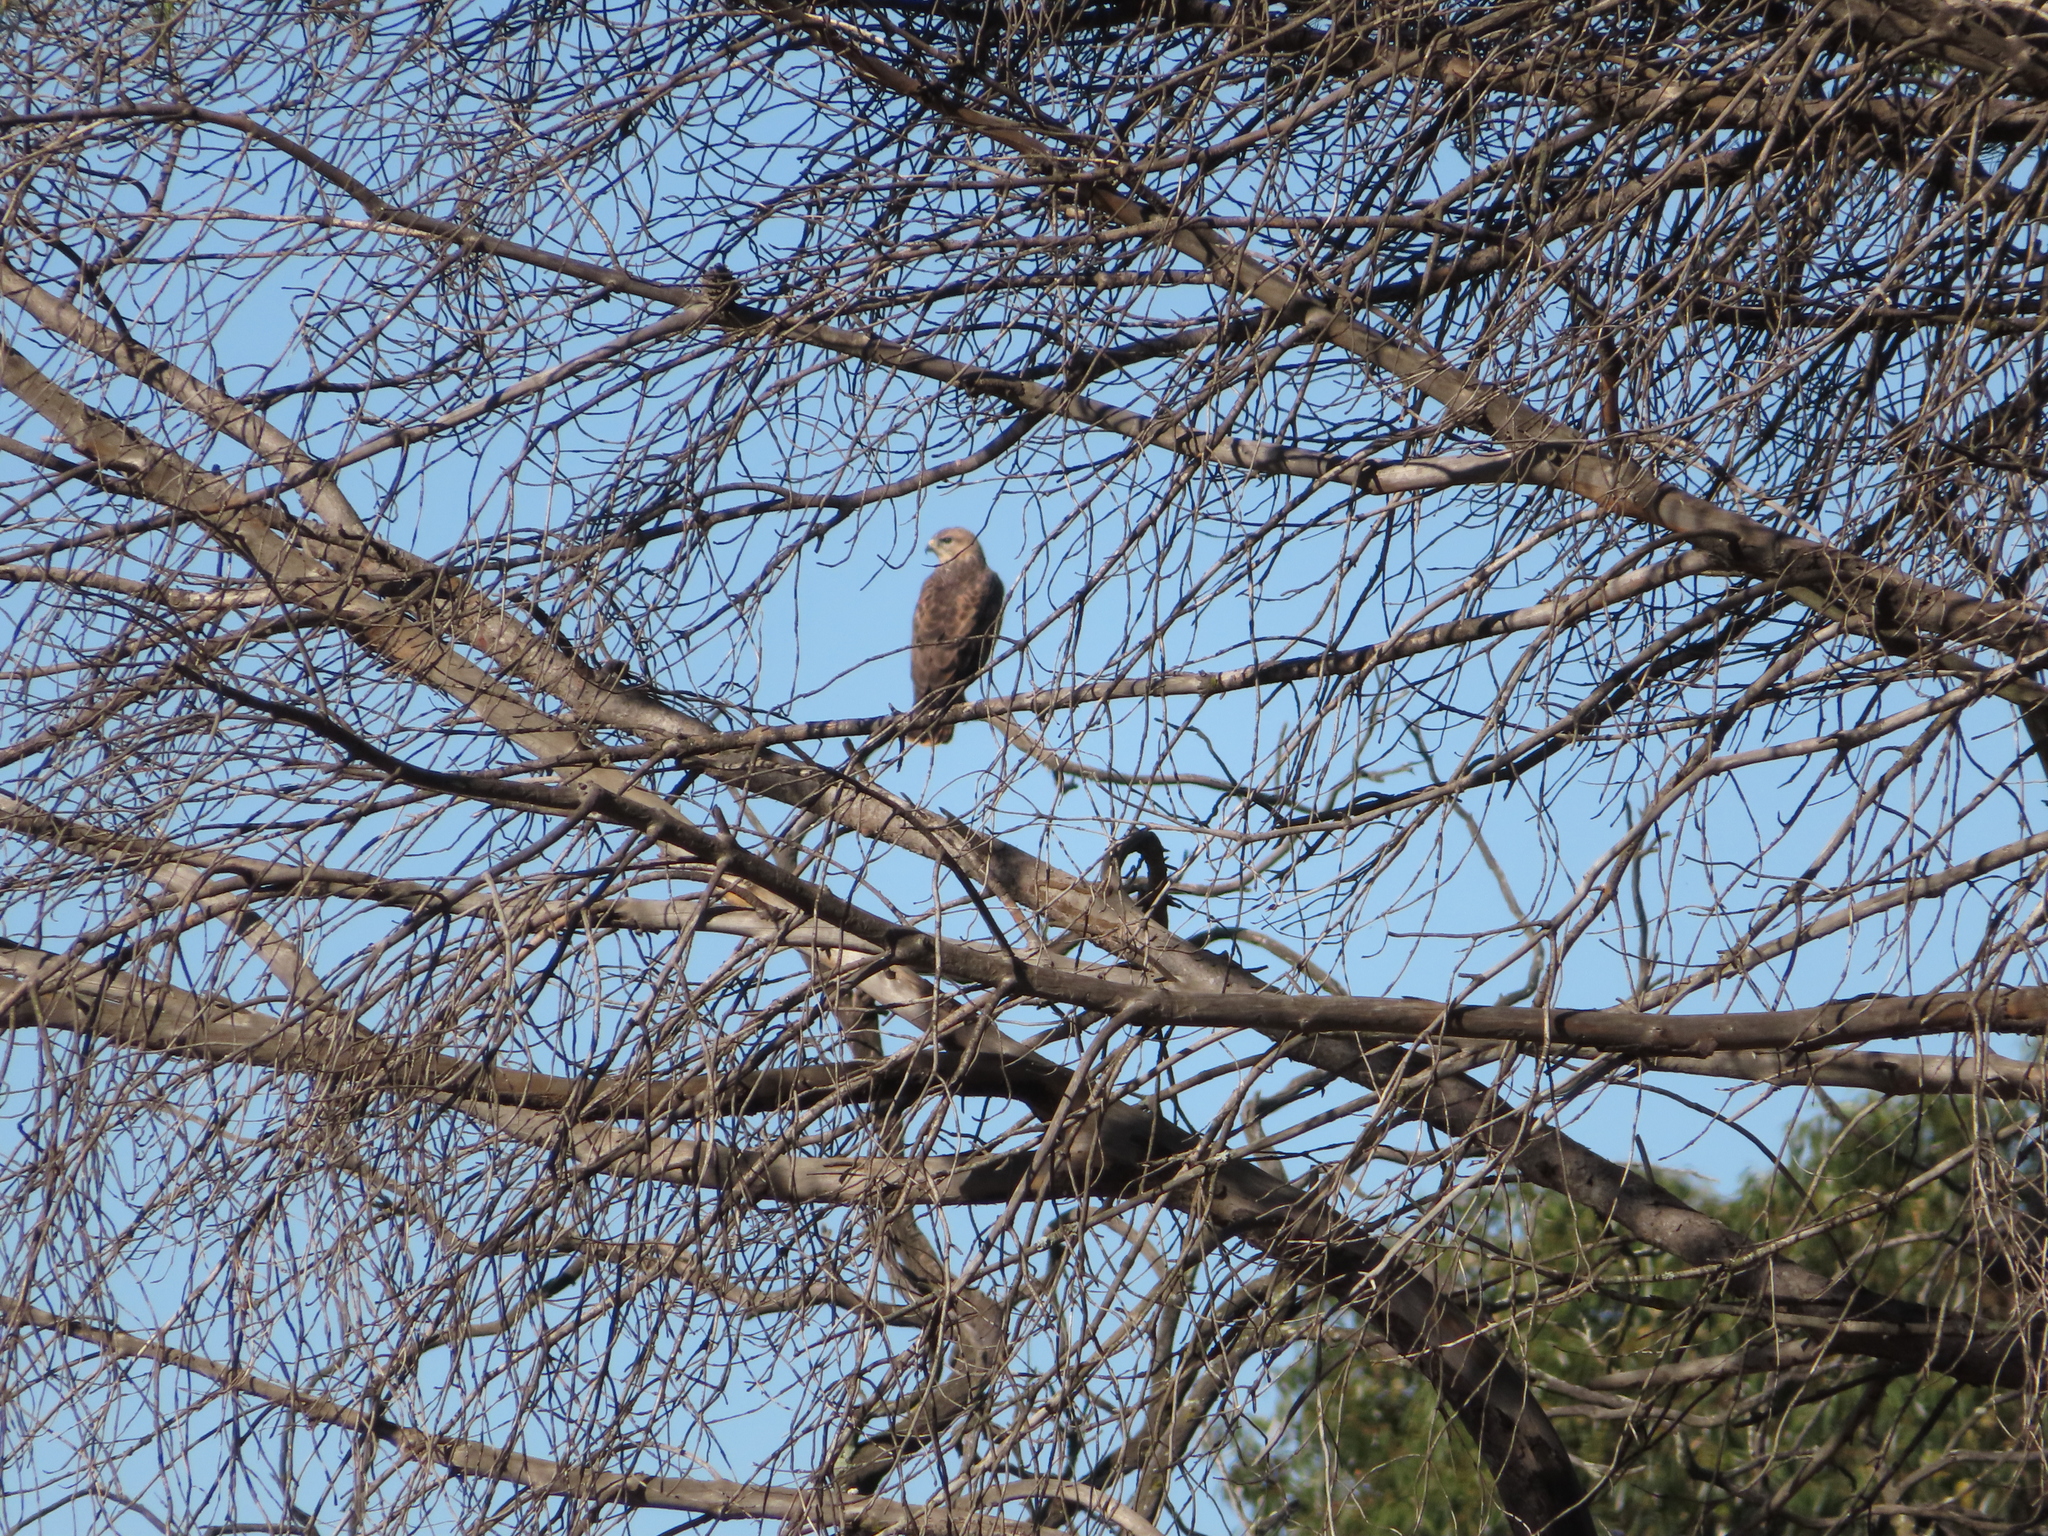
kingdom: Animalia
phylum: Chordata
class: Aves
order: Accipitriformes
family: Accipitridae
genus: Buteo
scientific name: Buteo buteo
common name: Common buzzard
